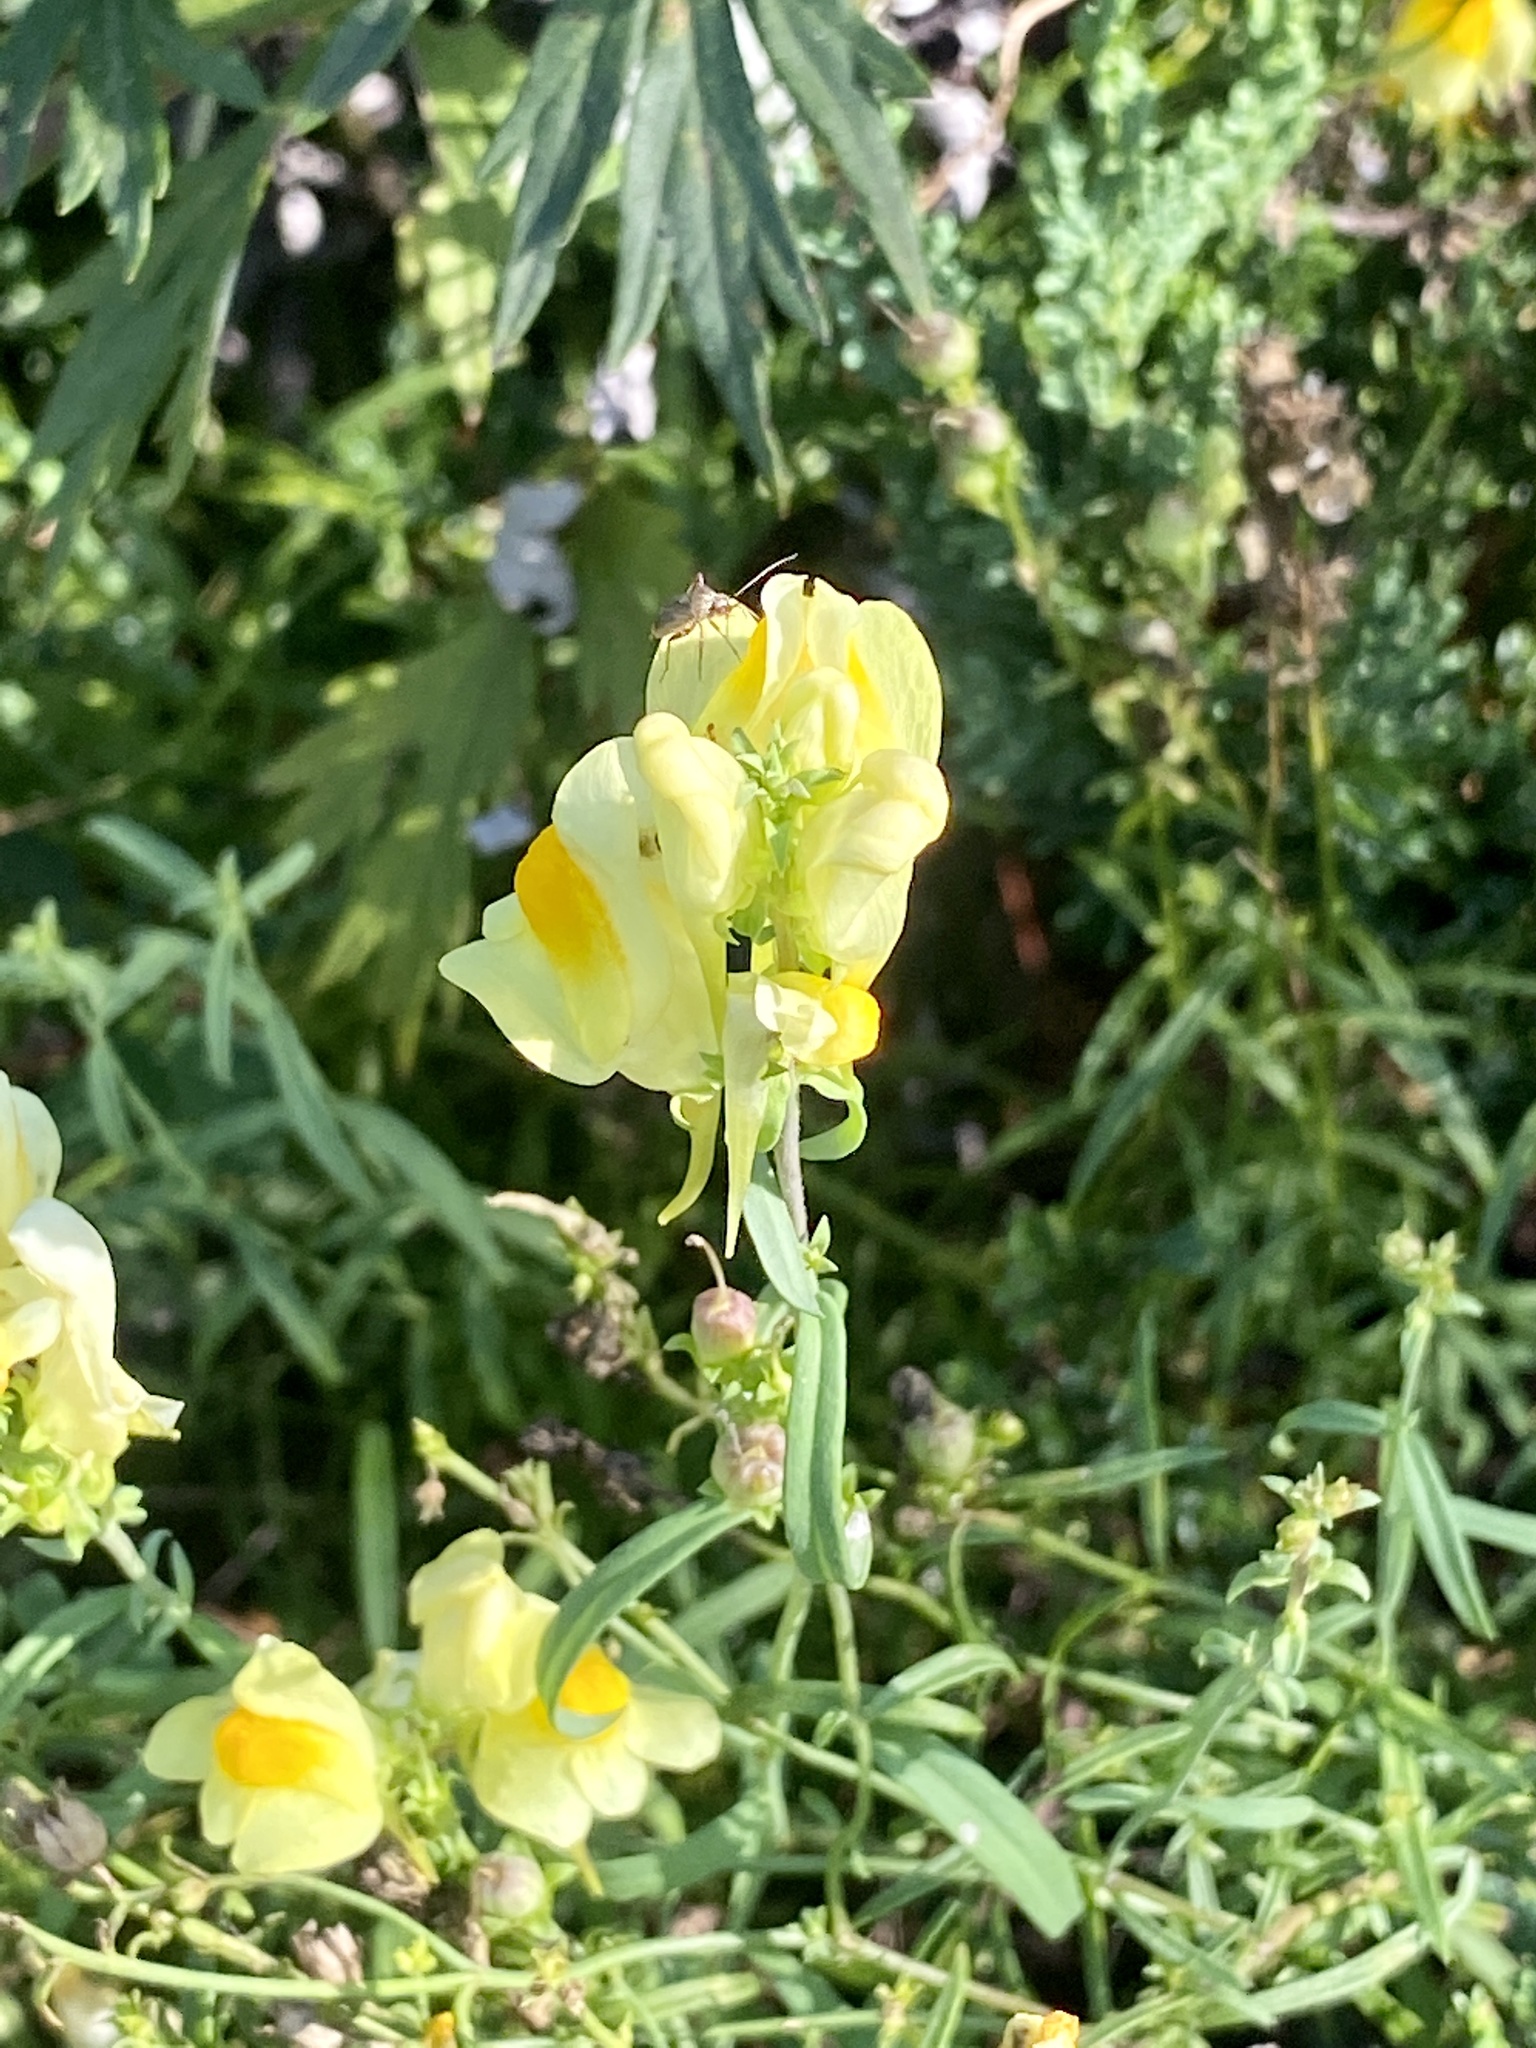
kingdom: Plantae
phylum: Tracheophyta
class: Magnoliopsida
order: Lamiales
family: Plantaginaceae
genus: Linaria
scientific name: Linaria vulgaris
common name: Butter and eggs
